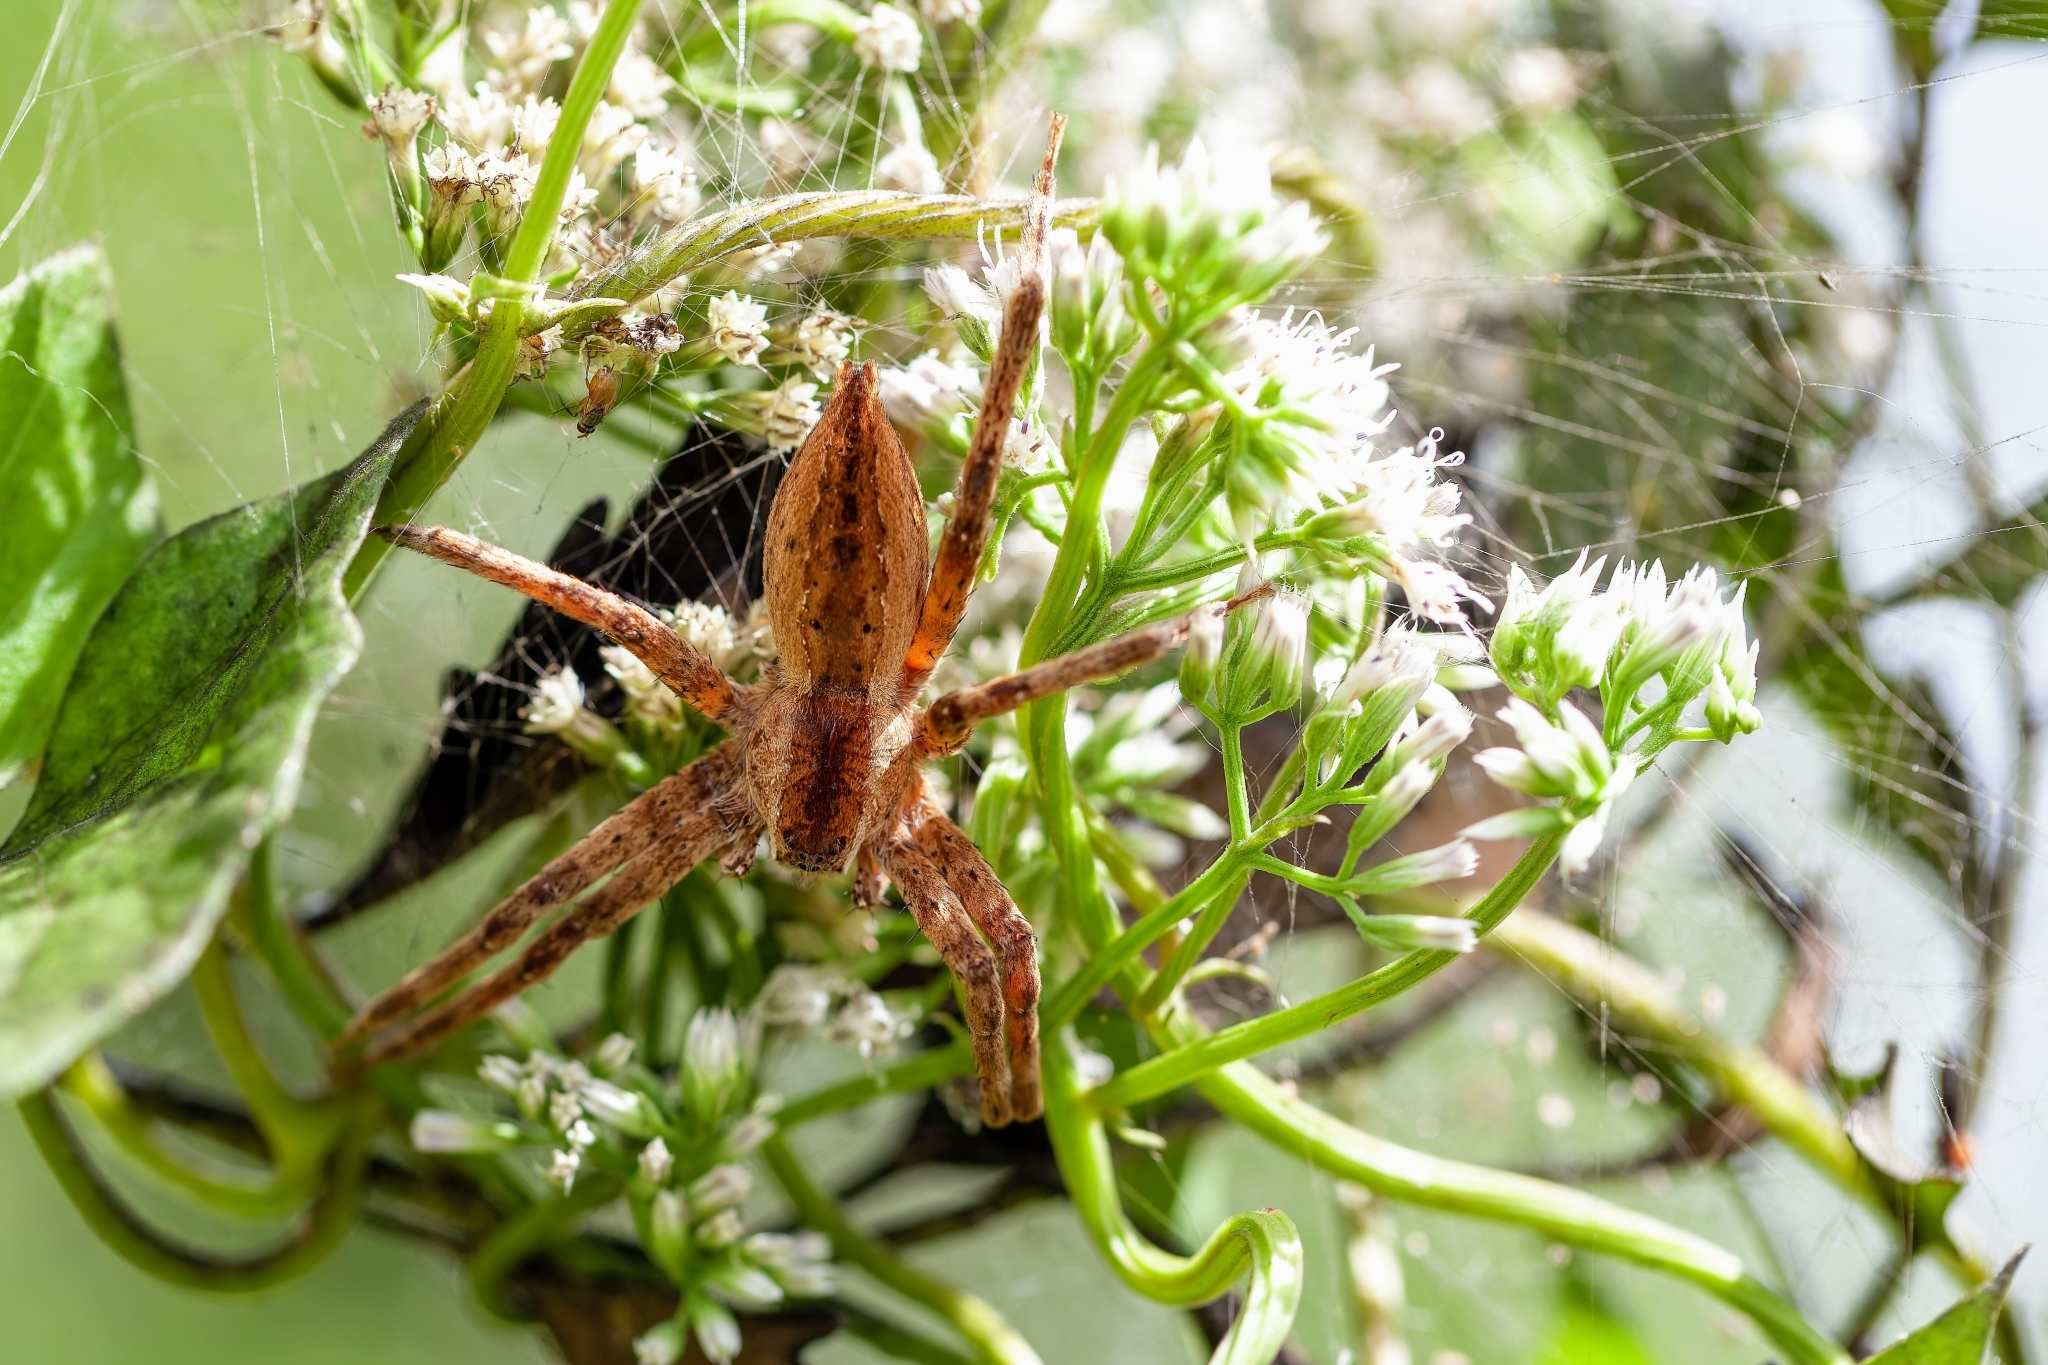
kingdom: Animalia
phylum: Arthropoda
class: Arachnida
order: Araneae
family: Pisauridae
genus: Pisaurina
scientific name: Pisaurina mira
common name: American nursery web spider
